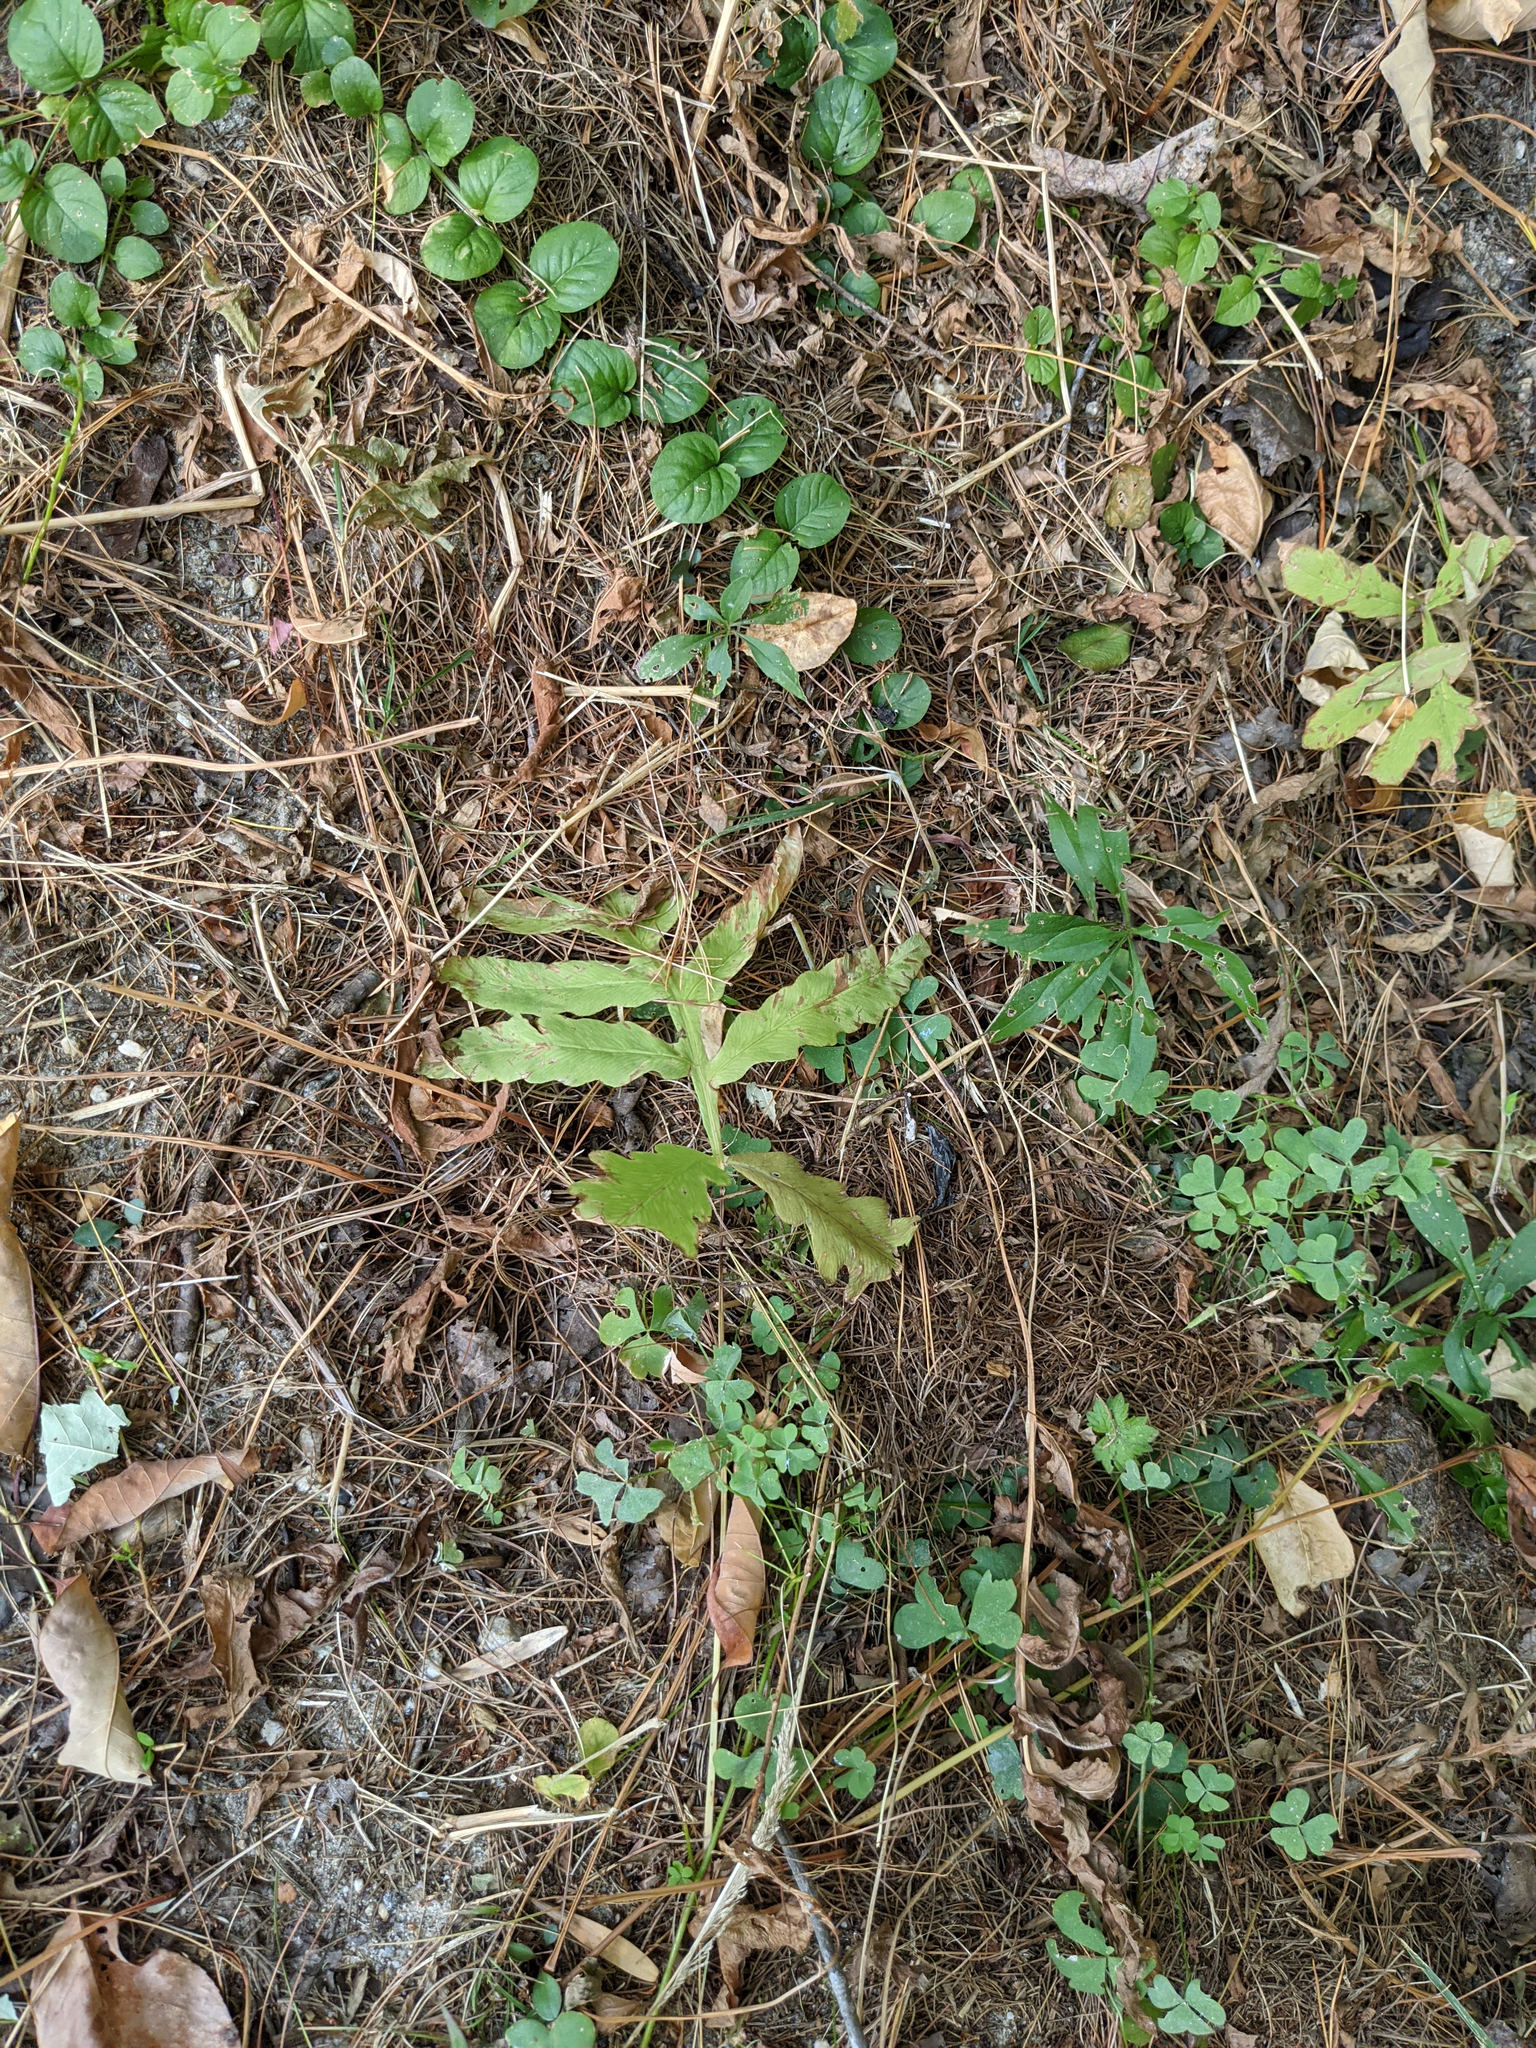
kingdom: Plantae
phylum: Tracheophyta
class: Polypodiopsida
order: Polypodiales
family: Onocleaceae
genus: Onoclea
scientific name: Onoclea sensibilis
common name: Sensitive fern
